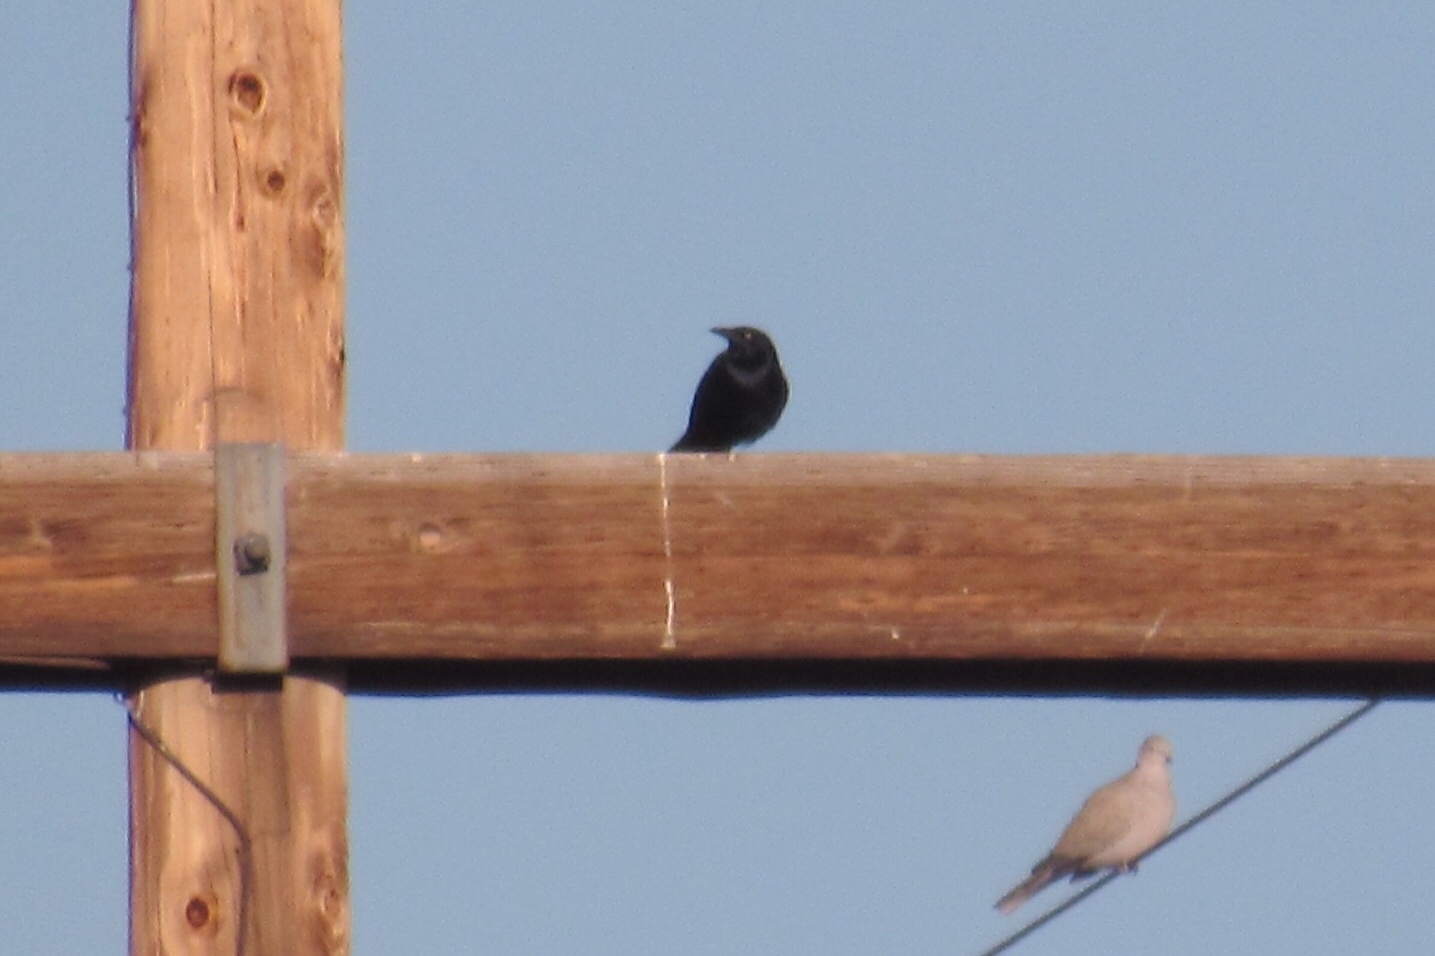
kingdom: Animalia
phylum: Chordata
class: Aves
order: Passeriformes
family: Icteridae
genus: Euphagus
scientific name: Euphagus cyanocephalus
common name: Brewer's blackbird
